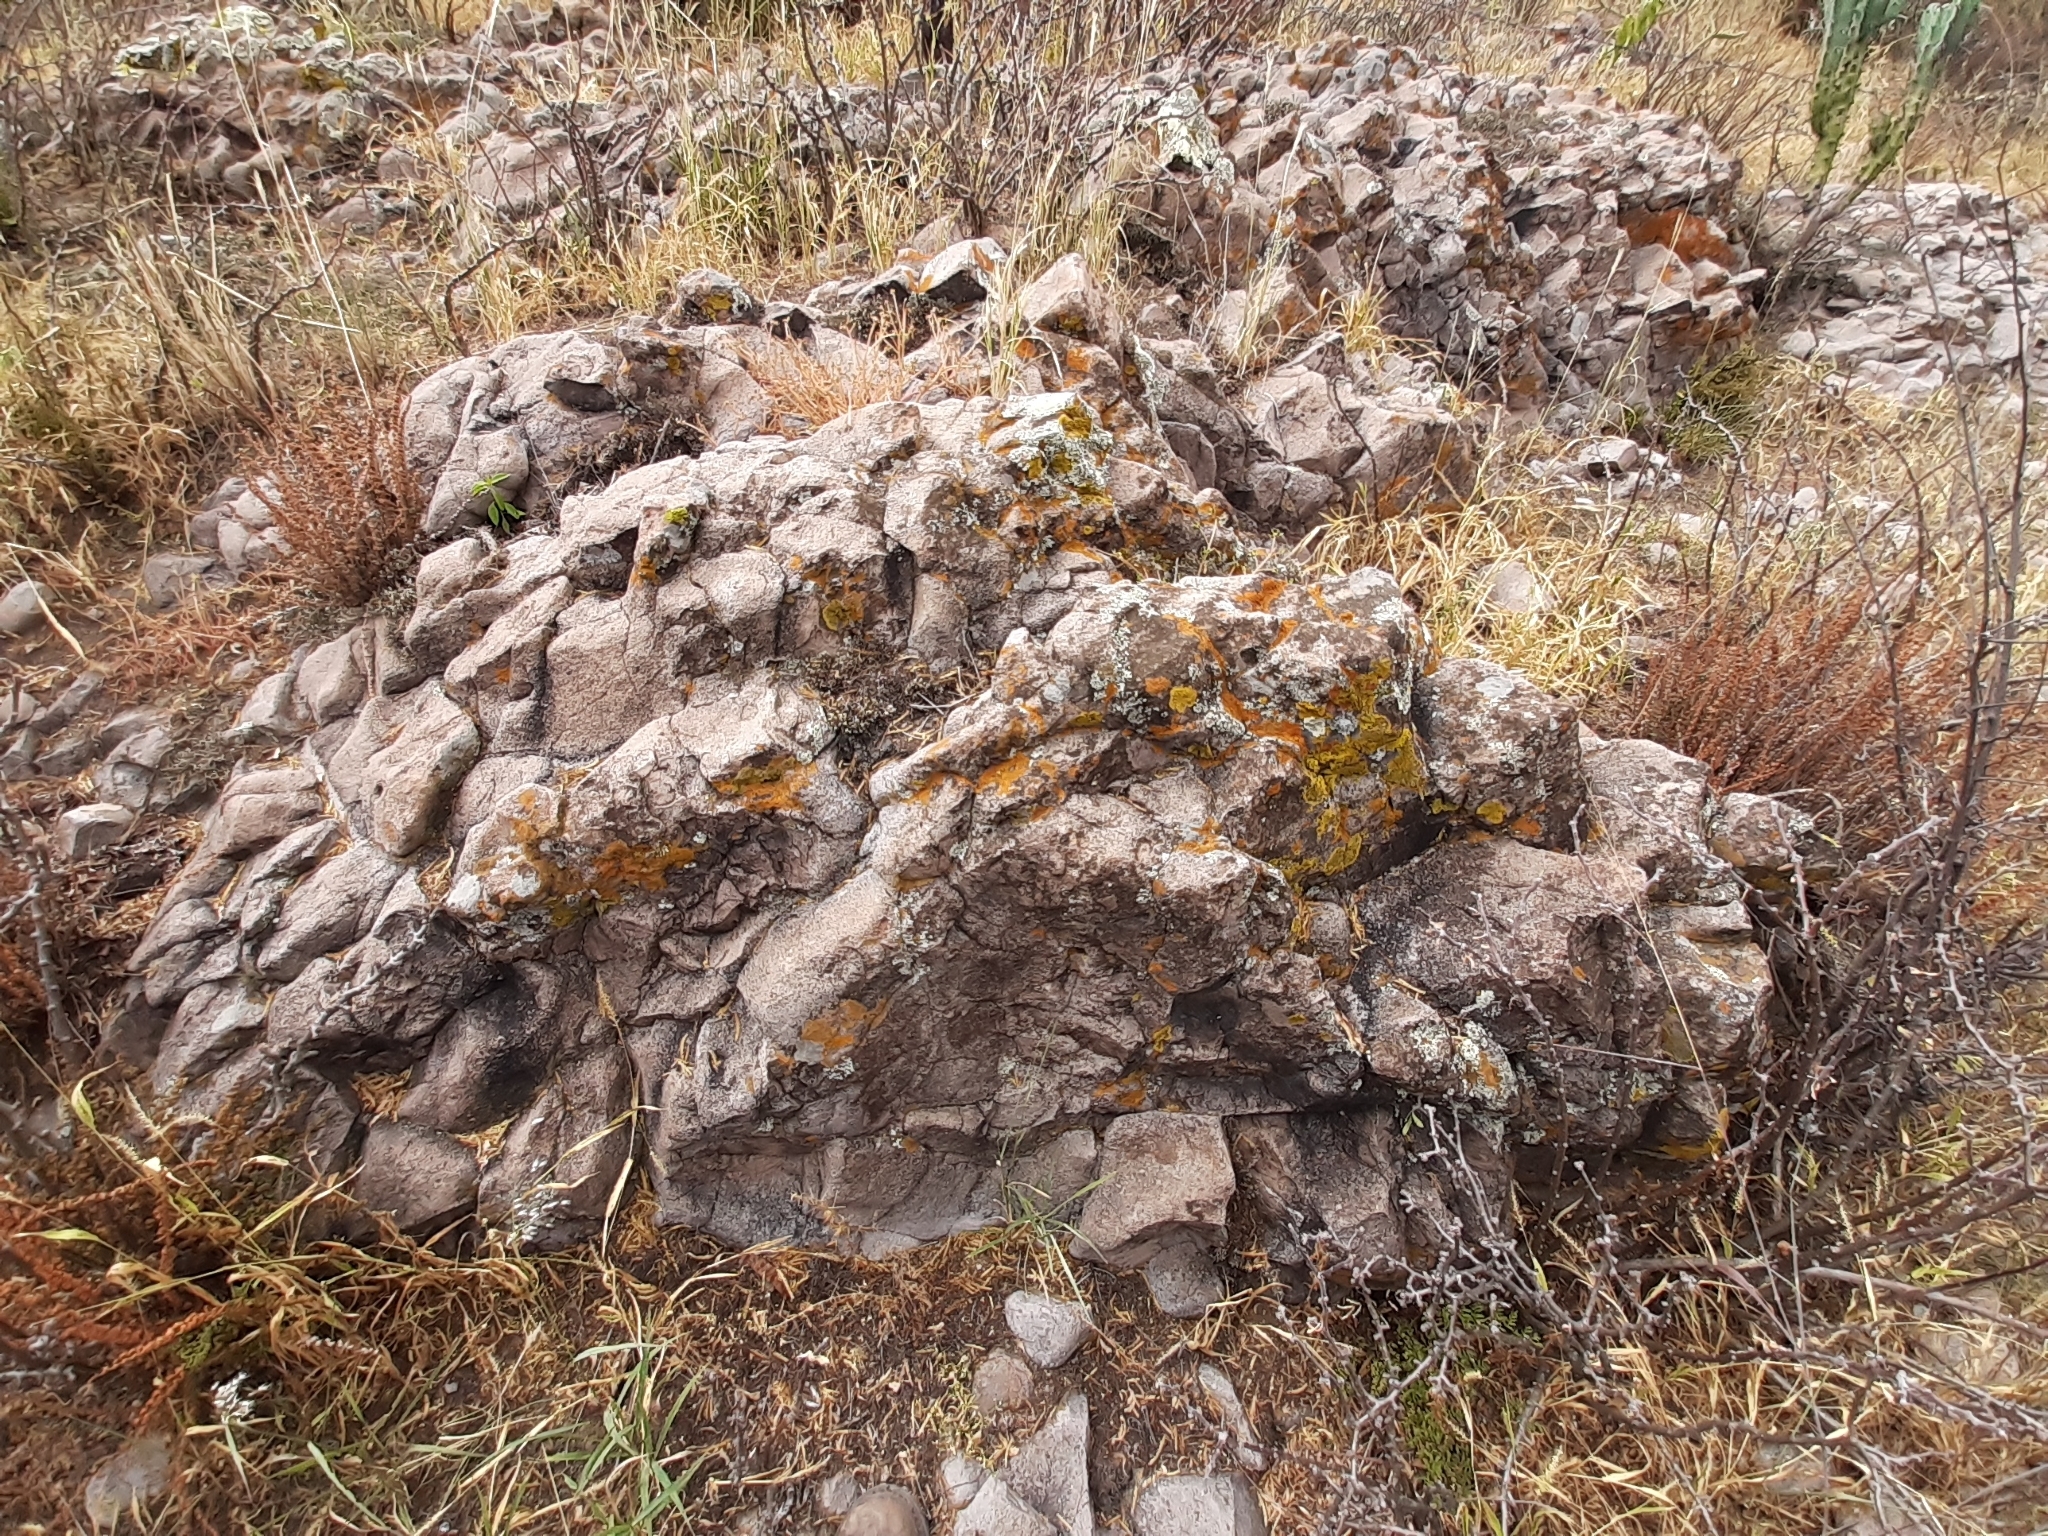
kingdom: Fungi
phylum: Ascomycota
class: Lecanoromycetes
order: Acarosporales
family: Acarosporaceae
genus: Acarospora
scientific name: Acarospora socialis
